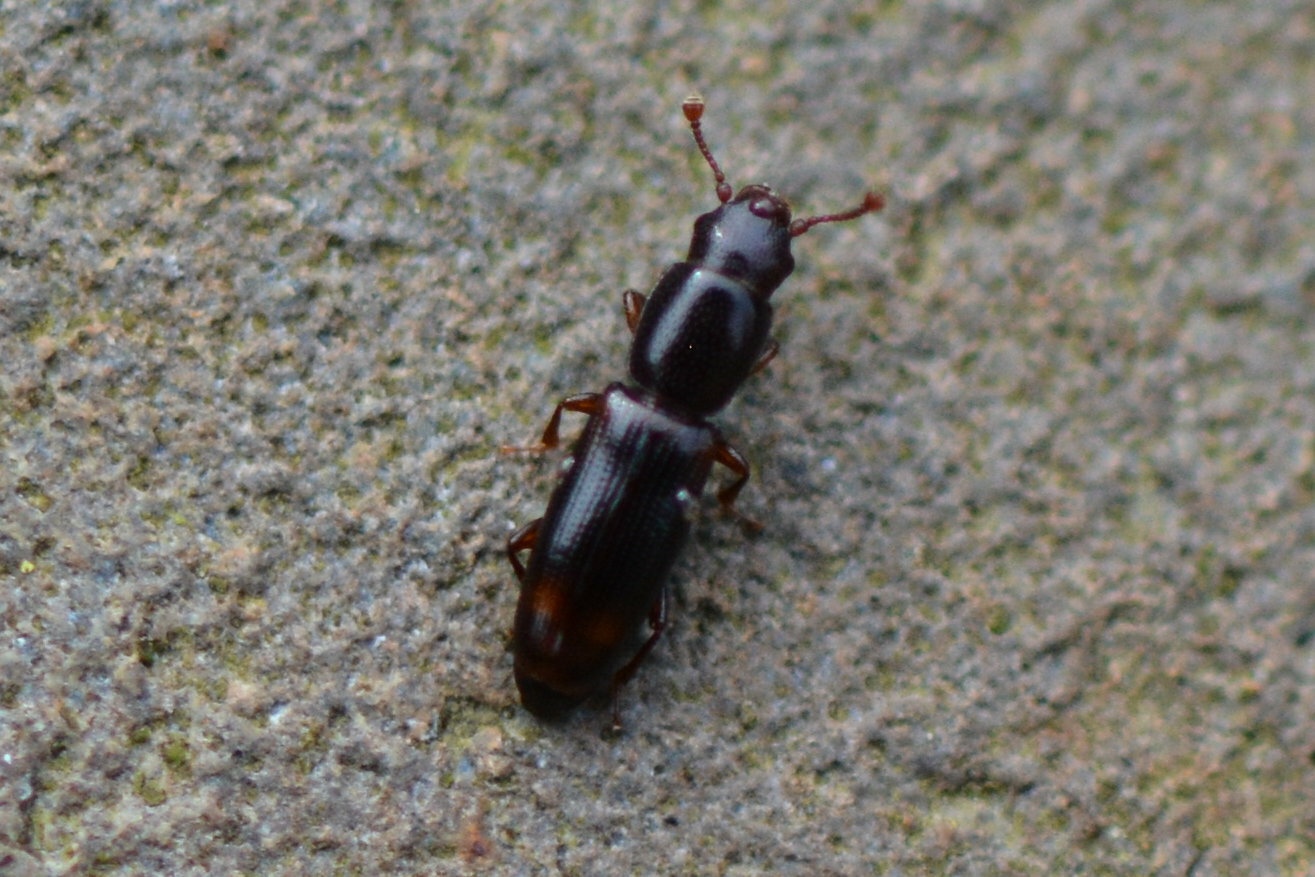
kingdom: Animalia
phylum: Arthropoda
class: Insecta
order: Coleoptera
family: Monotomidae
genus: Rhizophagus
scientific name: Rhizophagus bipustulatus
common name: Root-eating beetle
